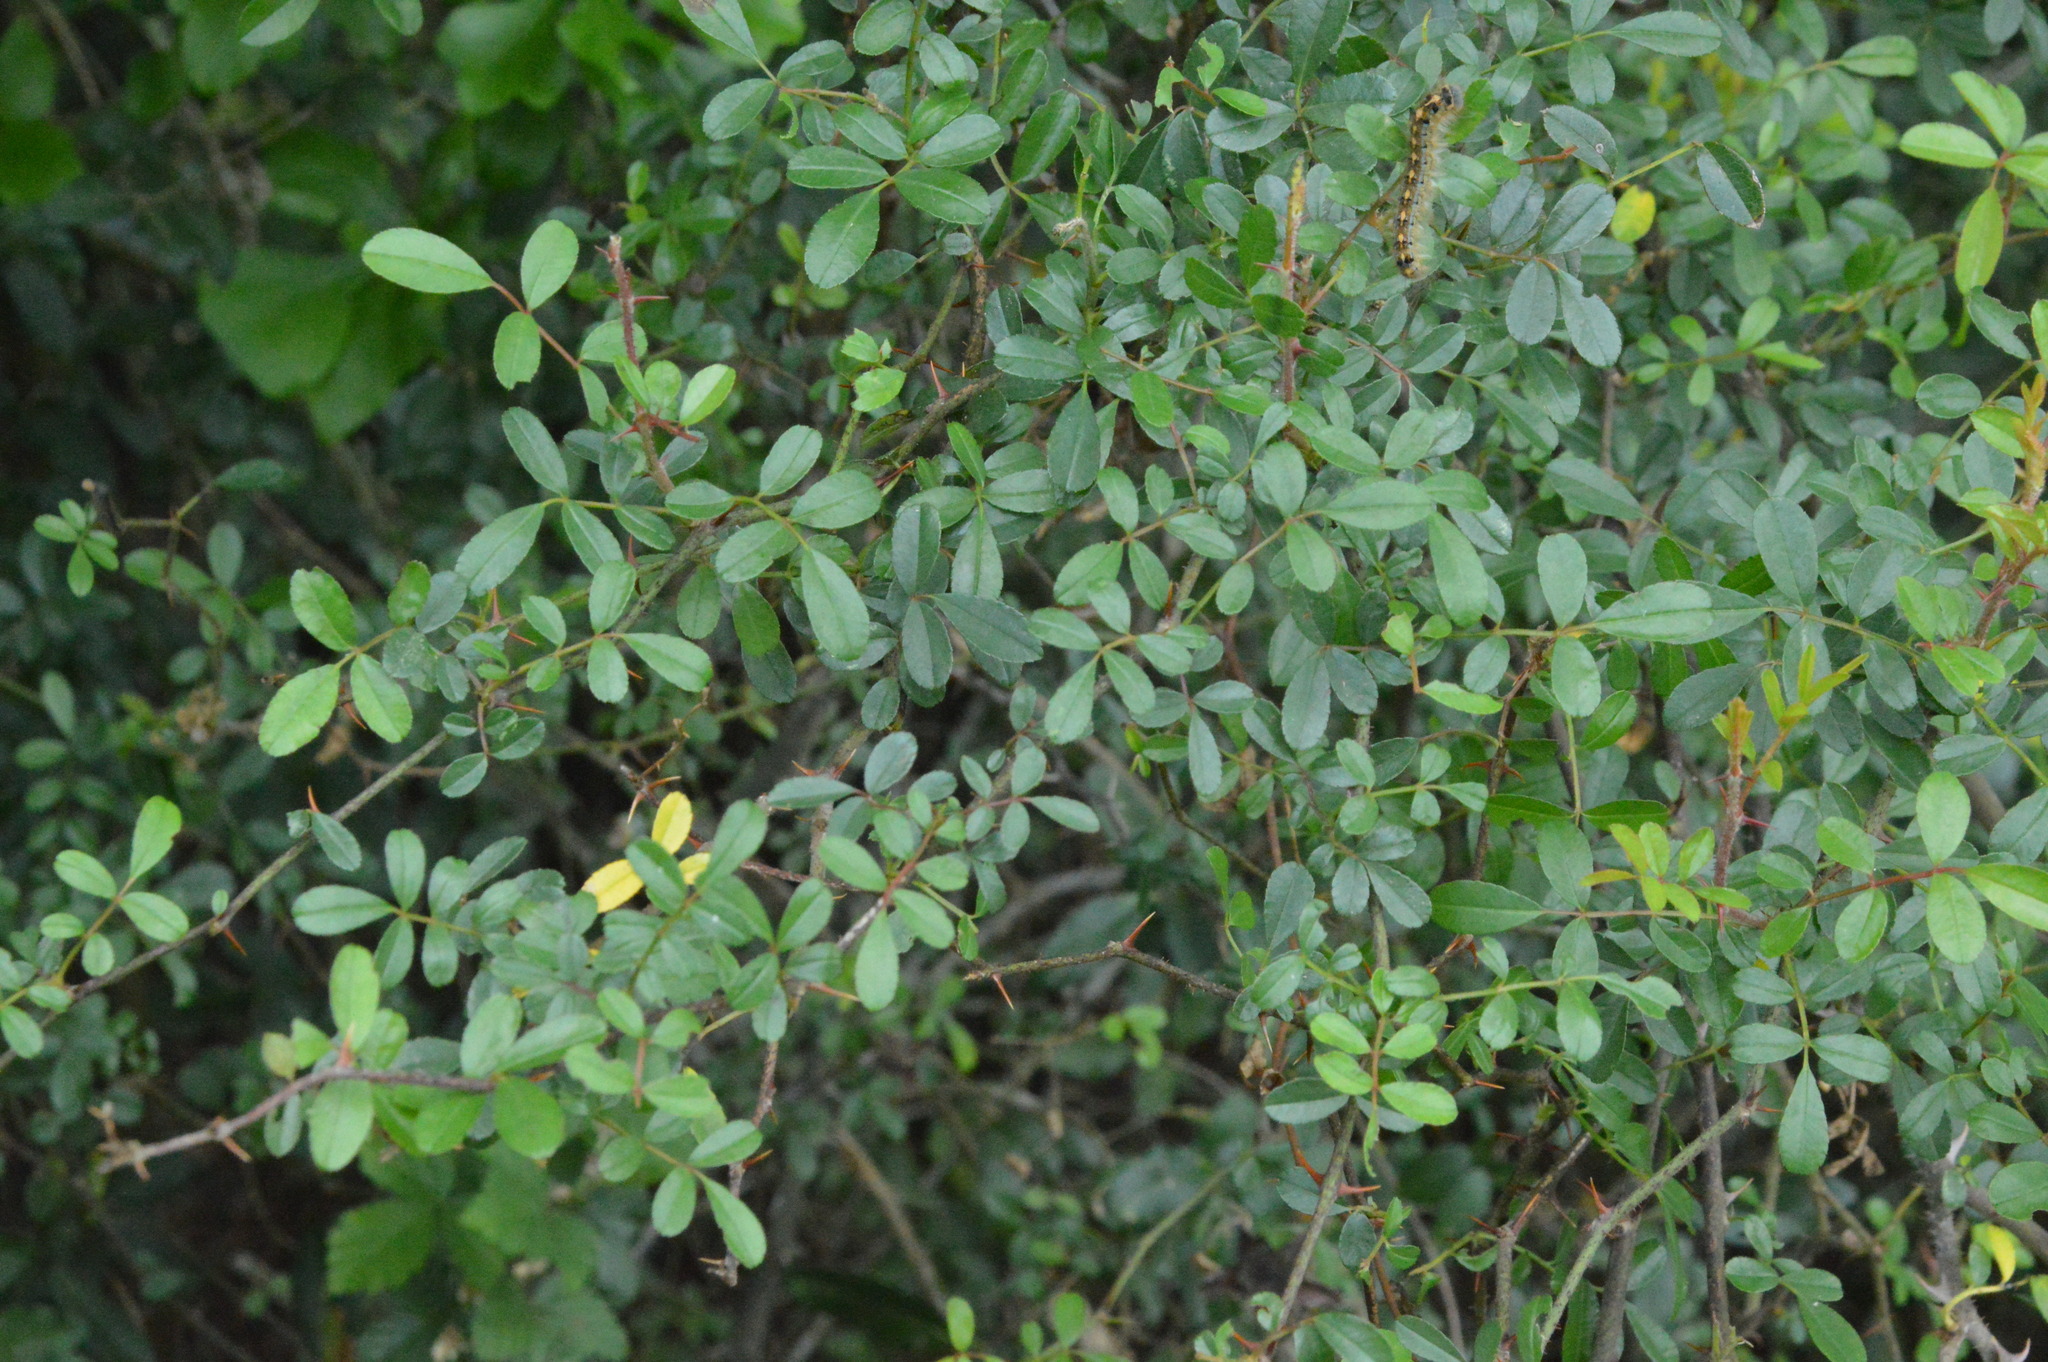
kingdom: Plantae
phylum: Tracheophyta
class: Magnoliopsida
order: Rosales
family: Rosaceae
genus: Rosa
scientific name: Rosa bracteata
